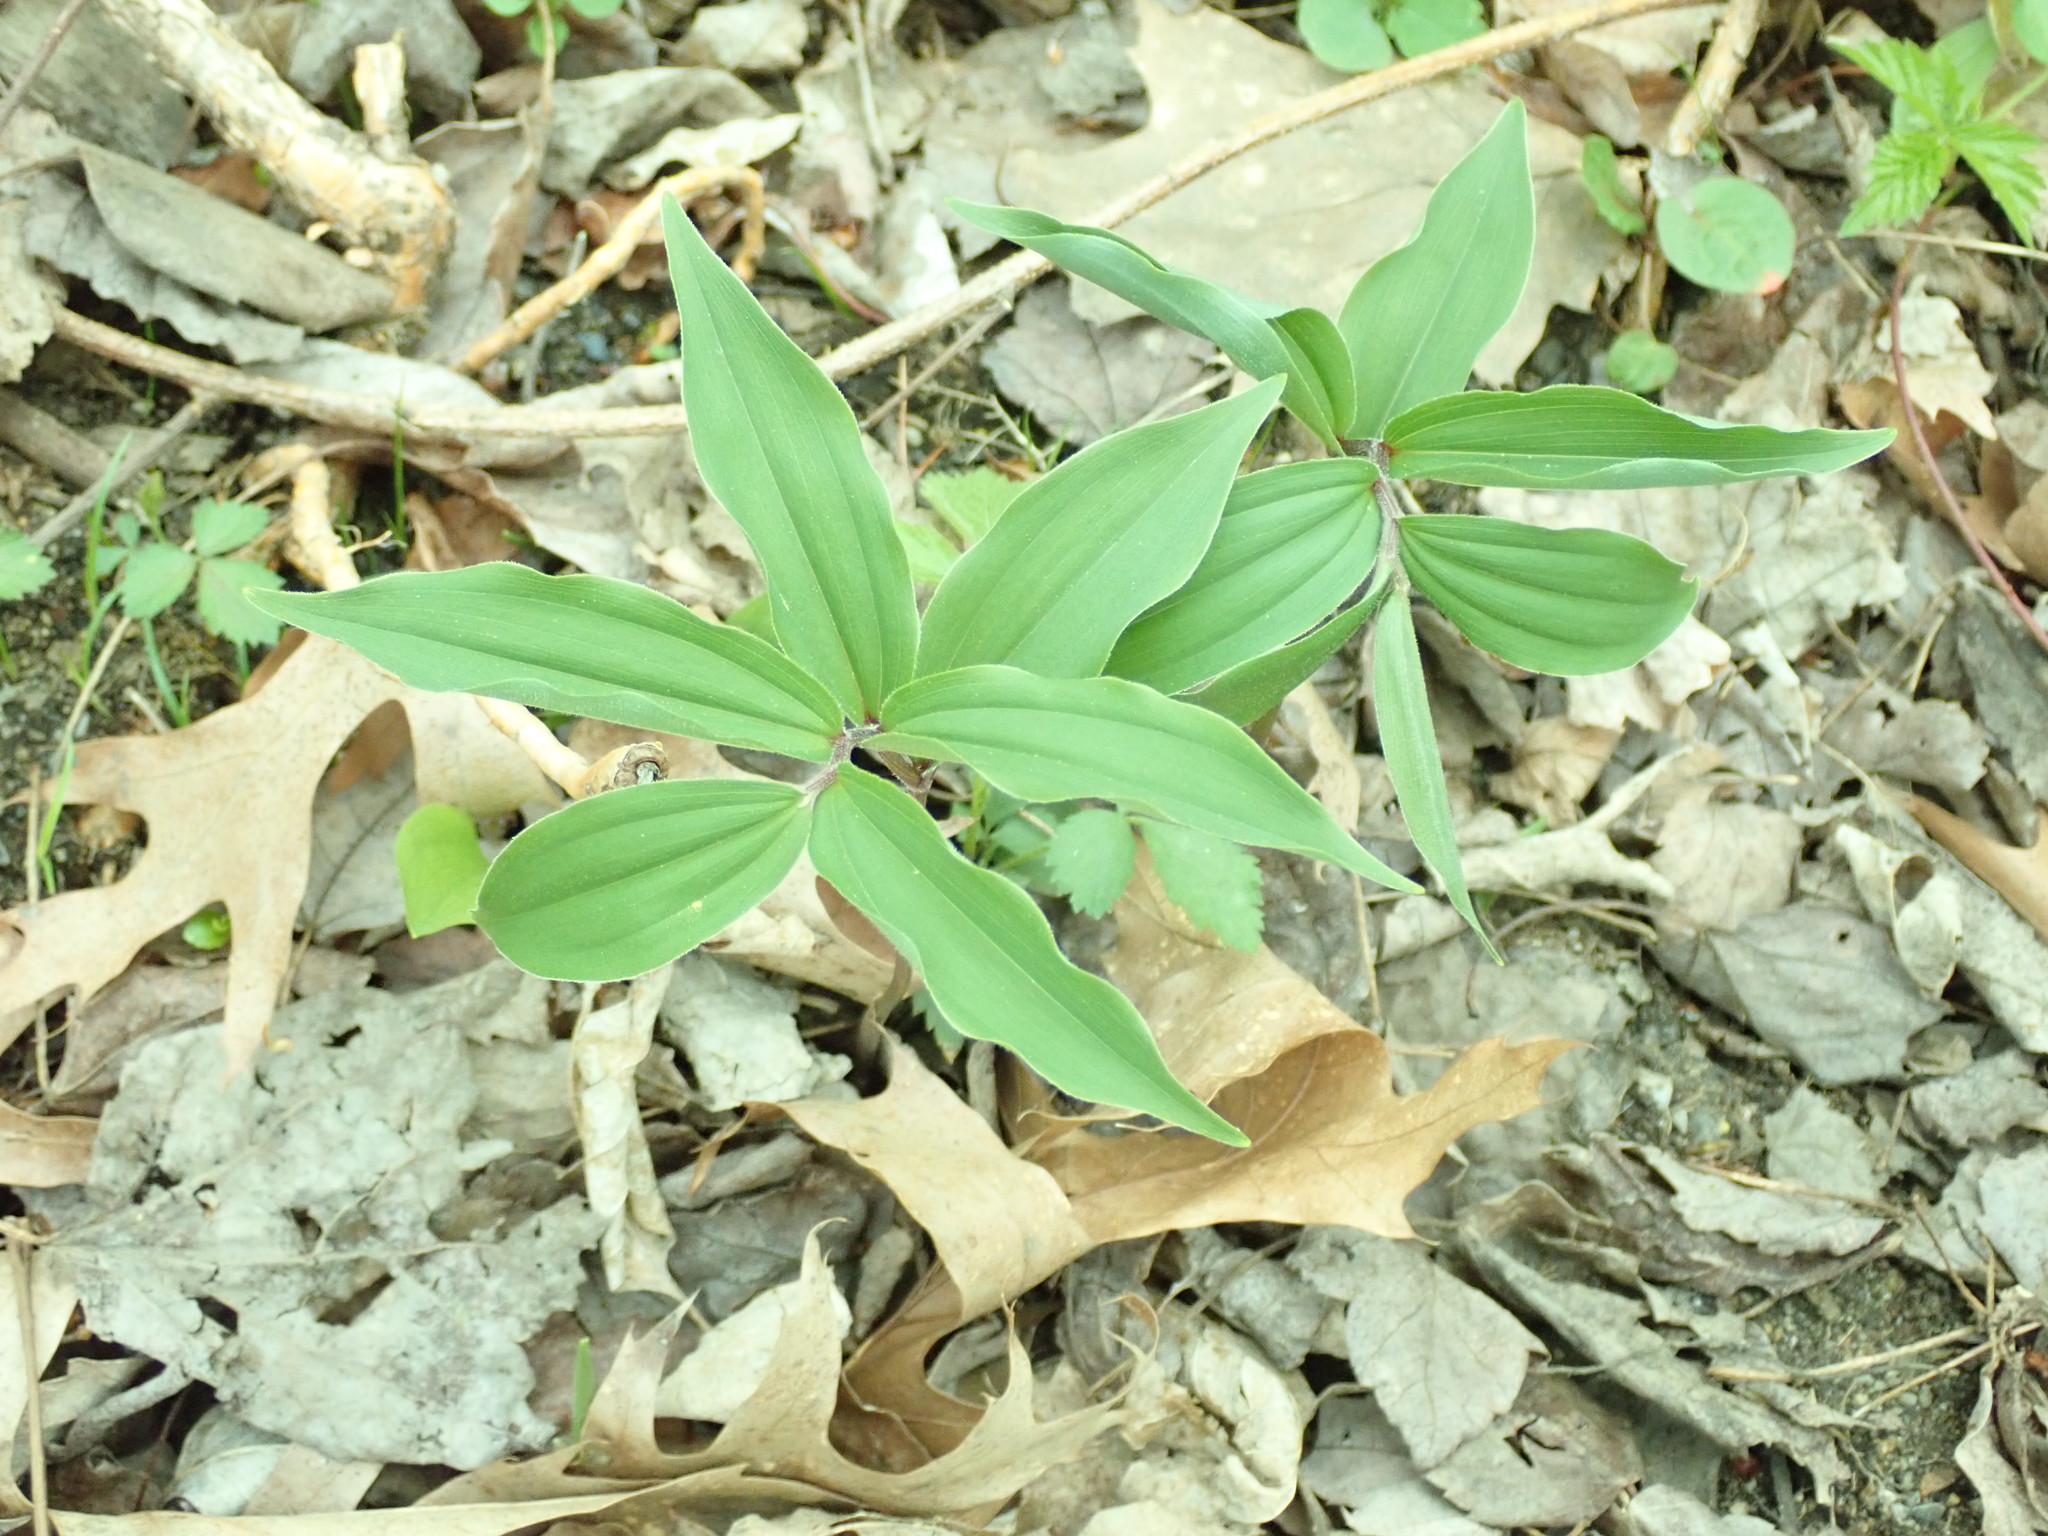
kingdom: Plantae
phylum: Tracheophyta
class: Liliopsida
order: Asparagales
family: Asparagaceae
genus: Maianthemum
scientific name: Maianthemum racemosum
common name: False spikenard
